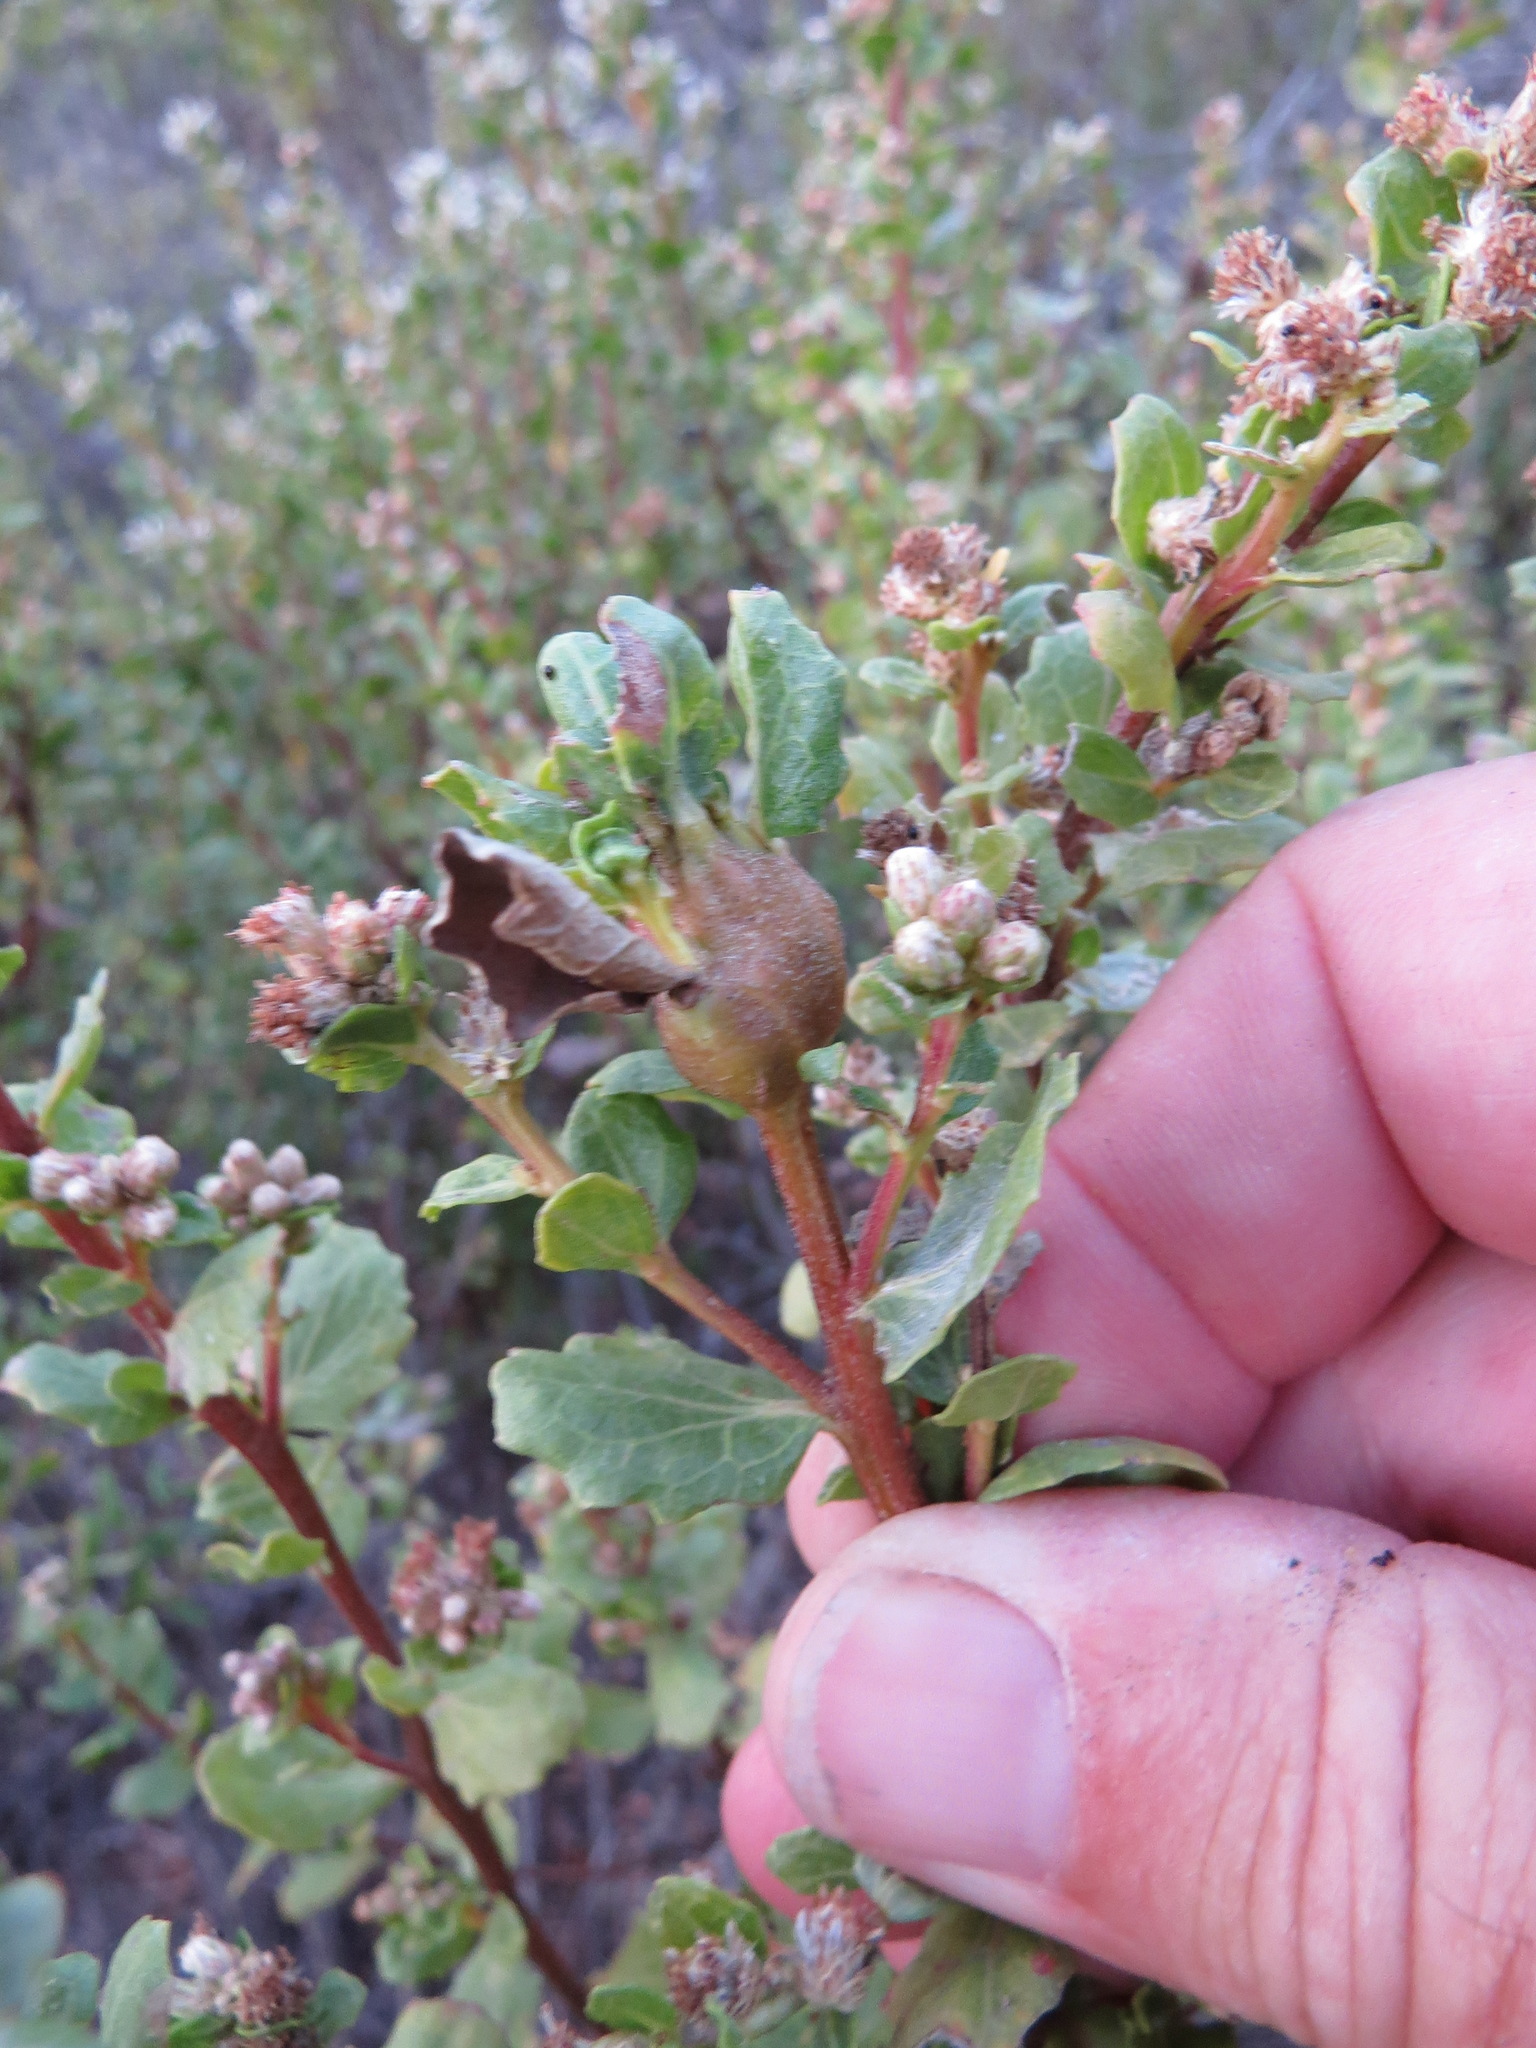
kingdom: Animalia
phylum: Arthropoda
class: Insecta
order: Lepidoptera
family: Gelechiidae
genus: Gnorimoschema
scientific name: Gnorimoschema baccharisella
